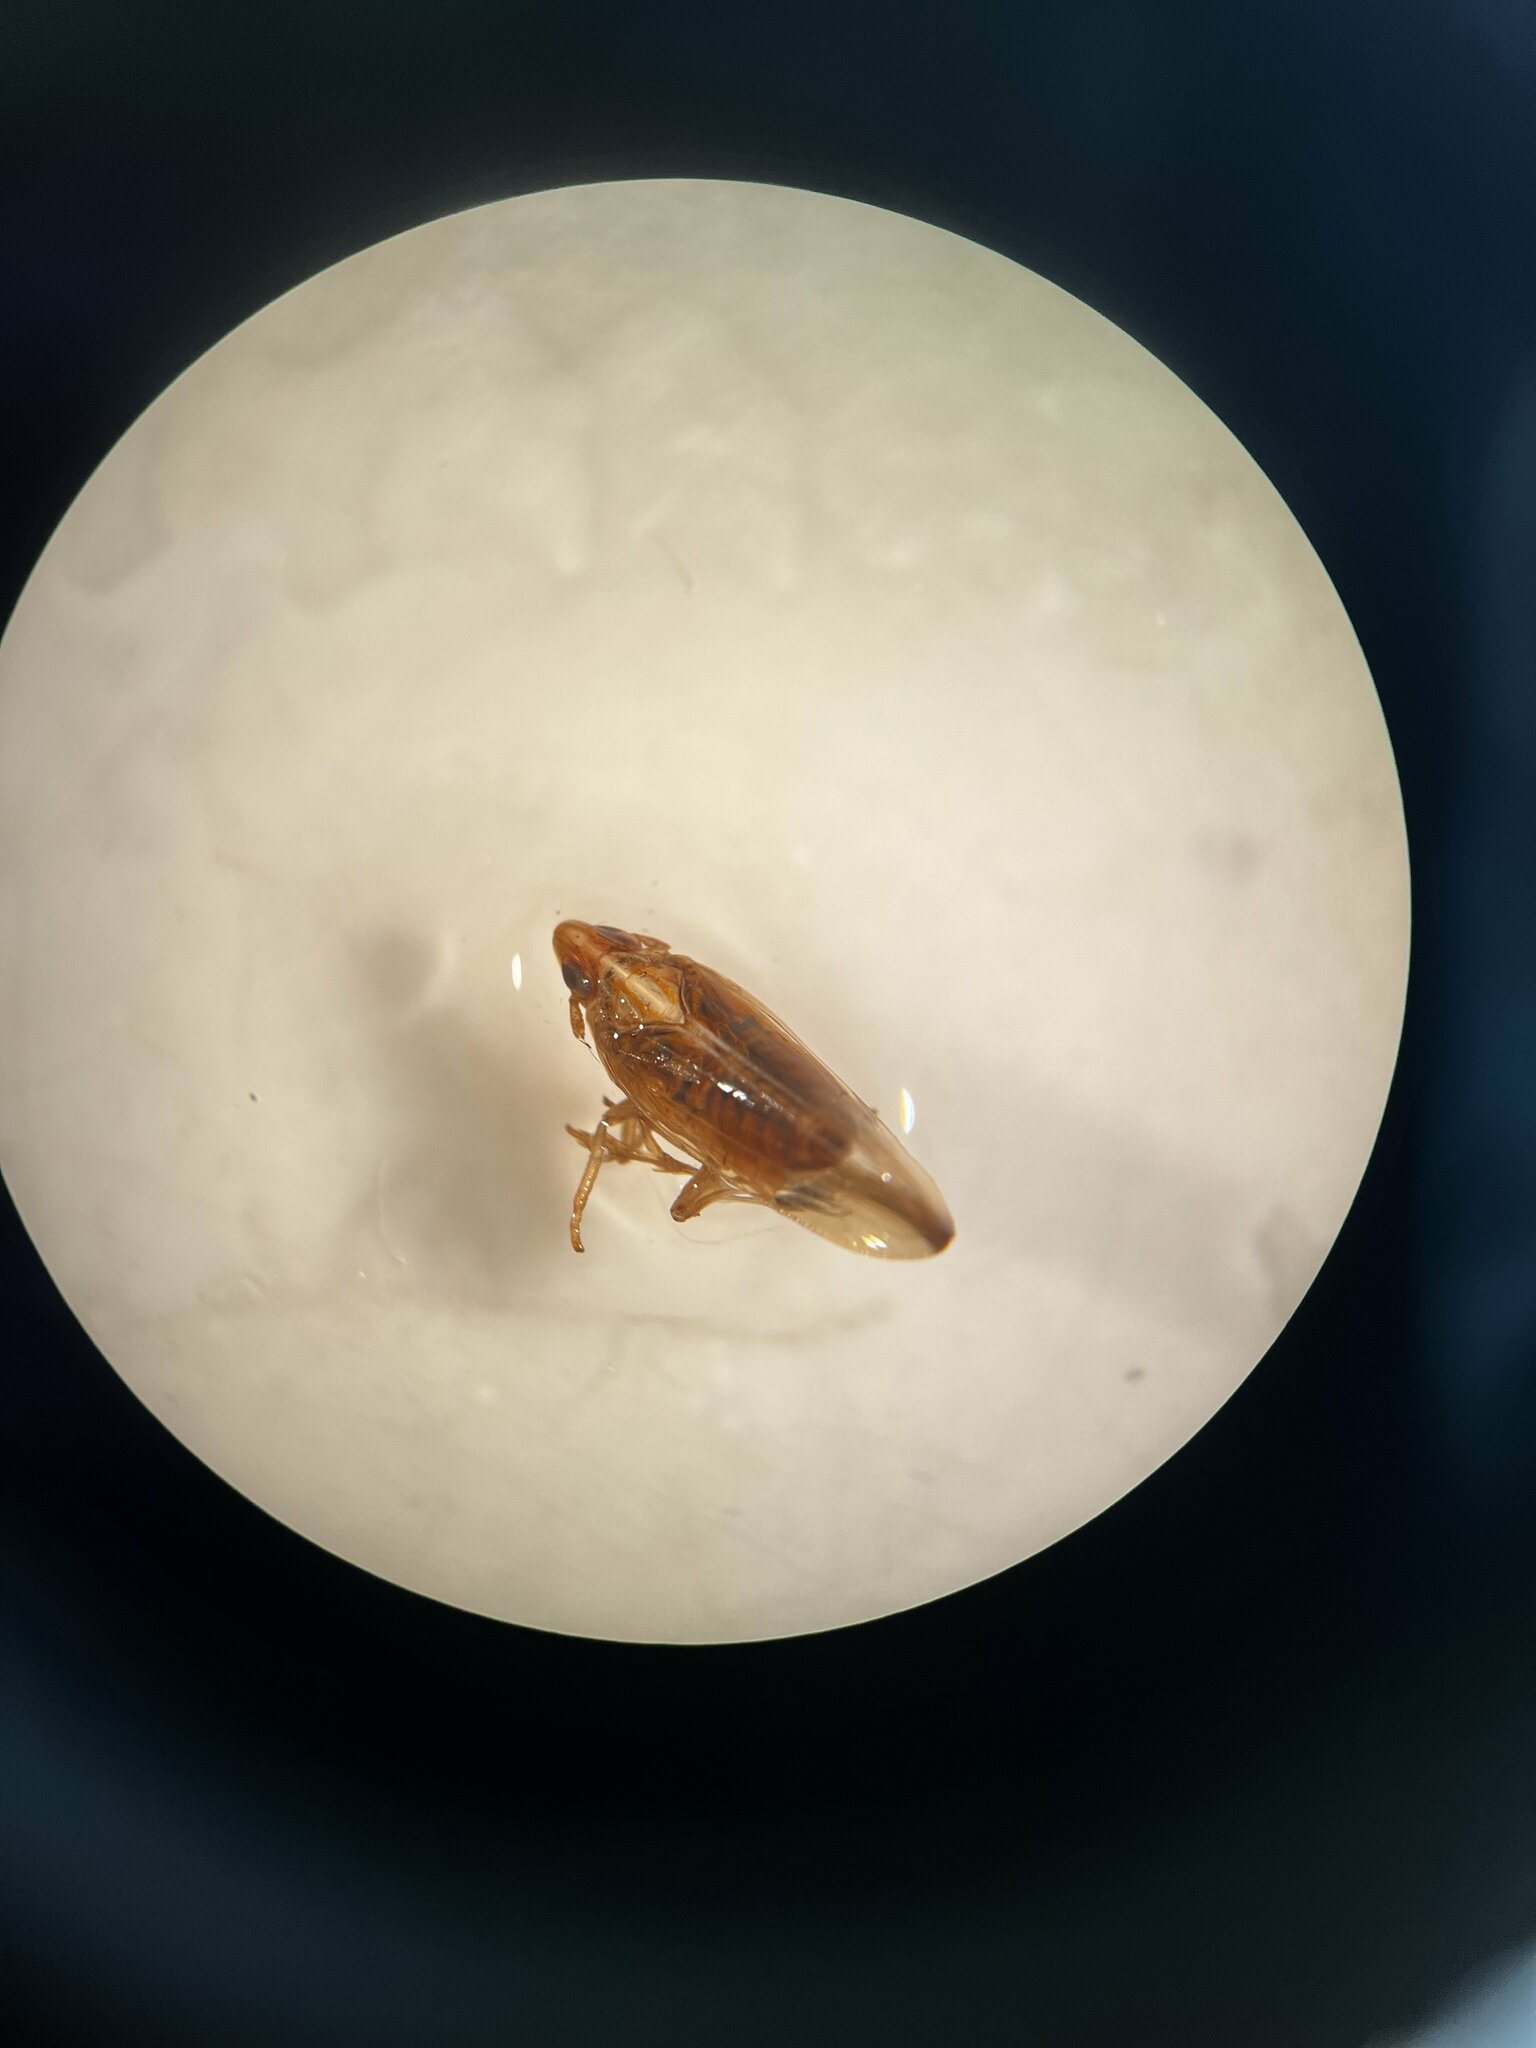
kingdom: Animalia
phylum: Arthropoda
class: Insecta
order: Hemiptera
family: Delphacidae
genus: Stenocranus
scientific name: Stenocranus minutus
